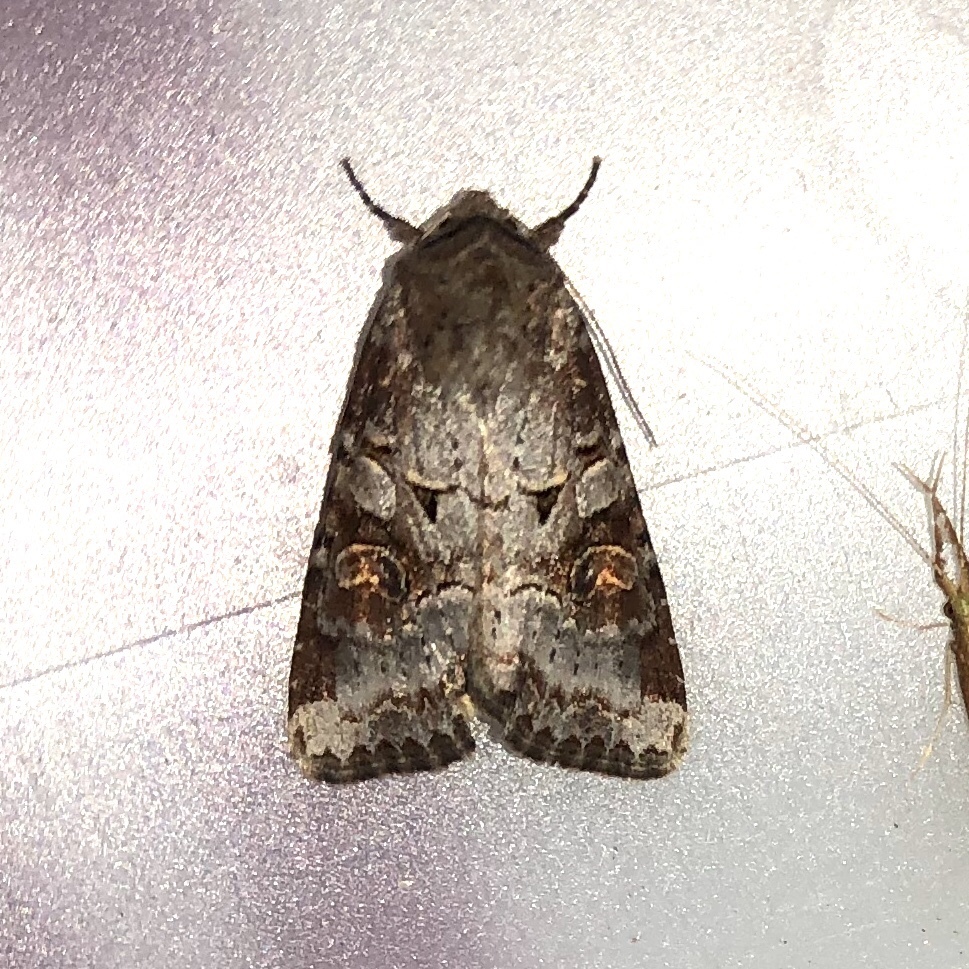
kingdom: Animalia
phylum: Arthropoda
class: Insecta
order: Lepidoptera
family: Noctuidae
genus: Trichordestra
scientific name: Trichordestra legitima
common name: Striped garden caterpillar
